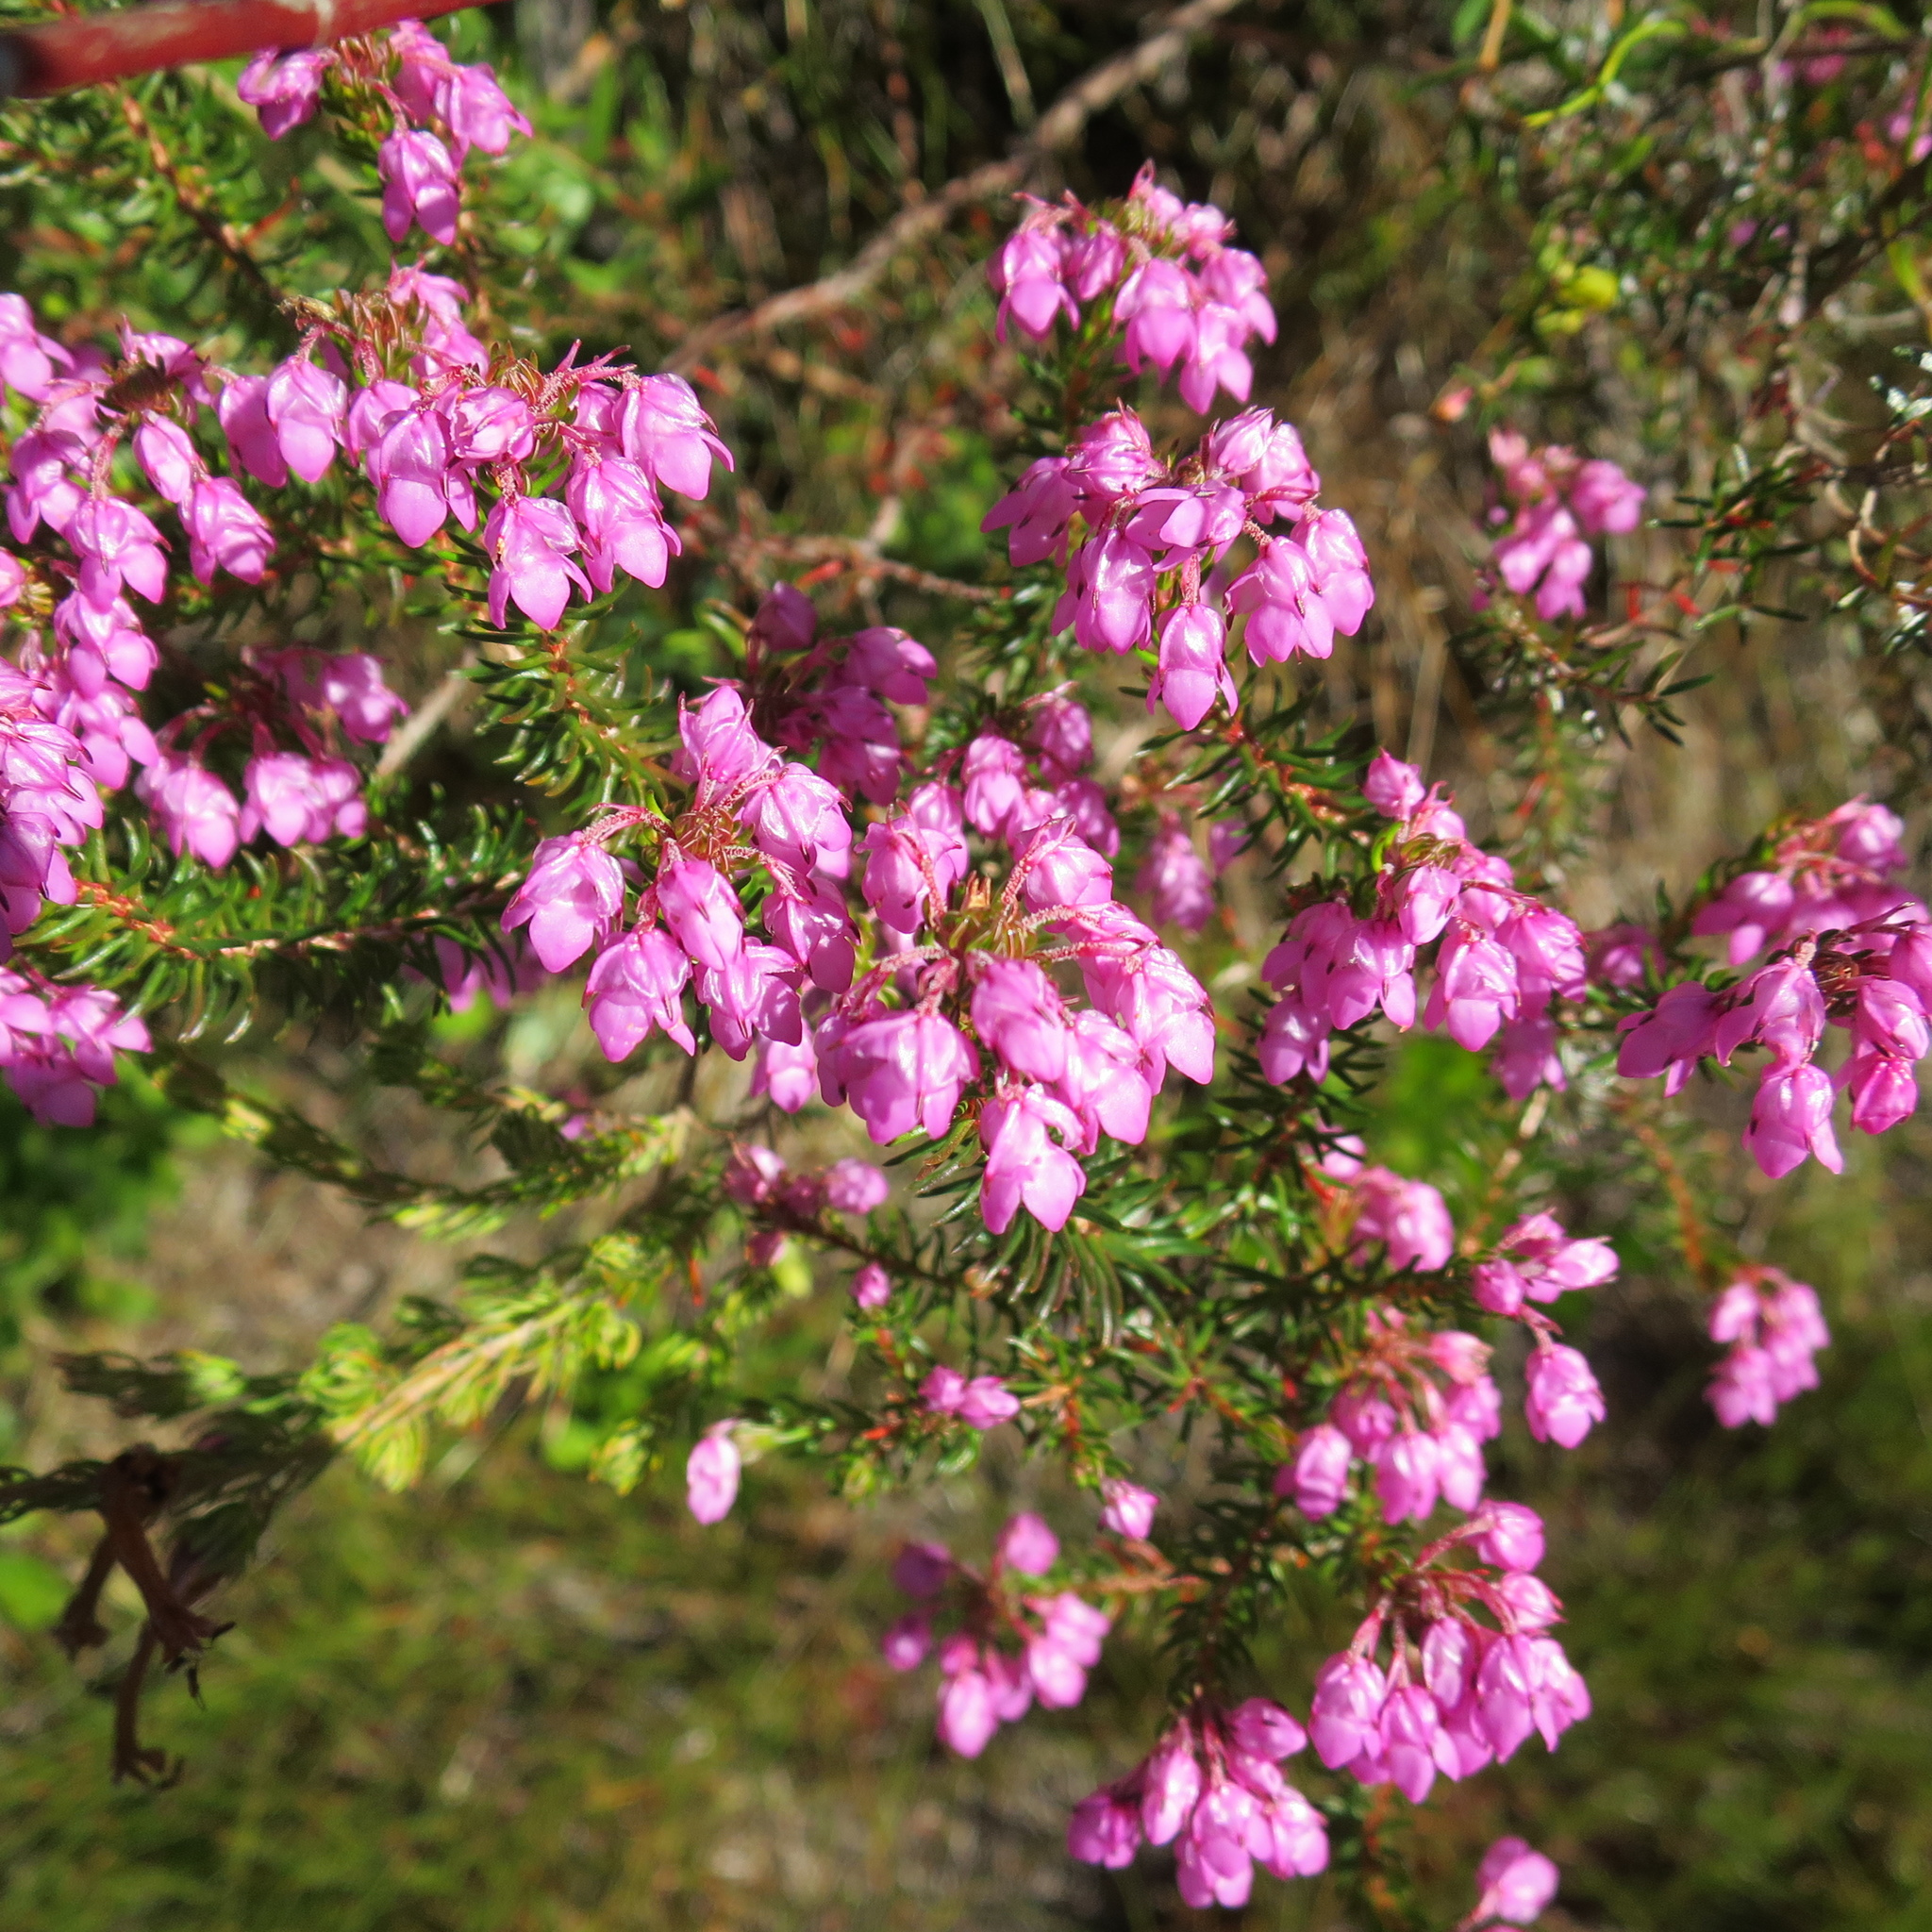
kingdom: Plantae
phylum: Tracheophyta
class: Magnoliopsida
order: Ericales
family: Ericaceae
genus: Erica
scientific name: Erica cubica
